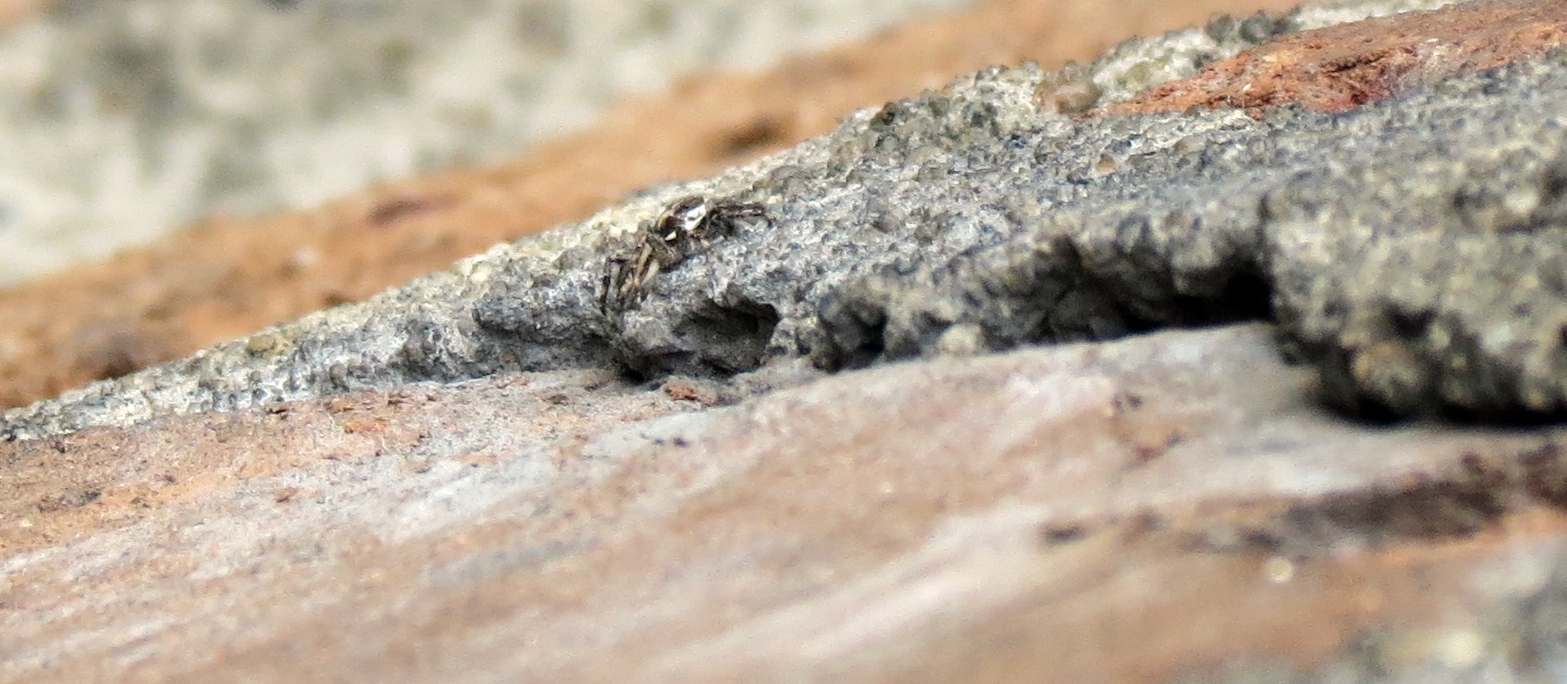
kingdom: Animalia
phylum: Arthropoda
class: Arachnida
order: Araneae
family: Salticidae
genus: Menemerus
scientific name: Menemerus bivittatus
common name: Gray wall jumper
